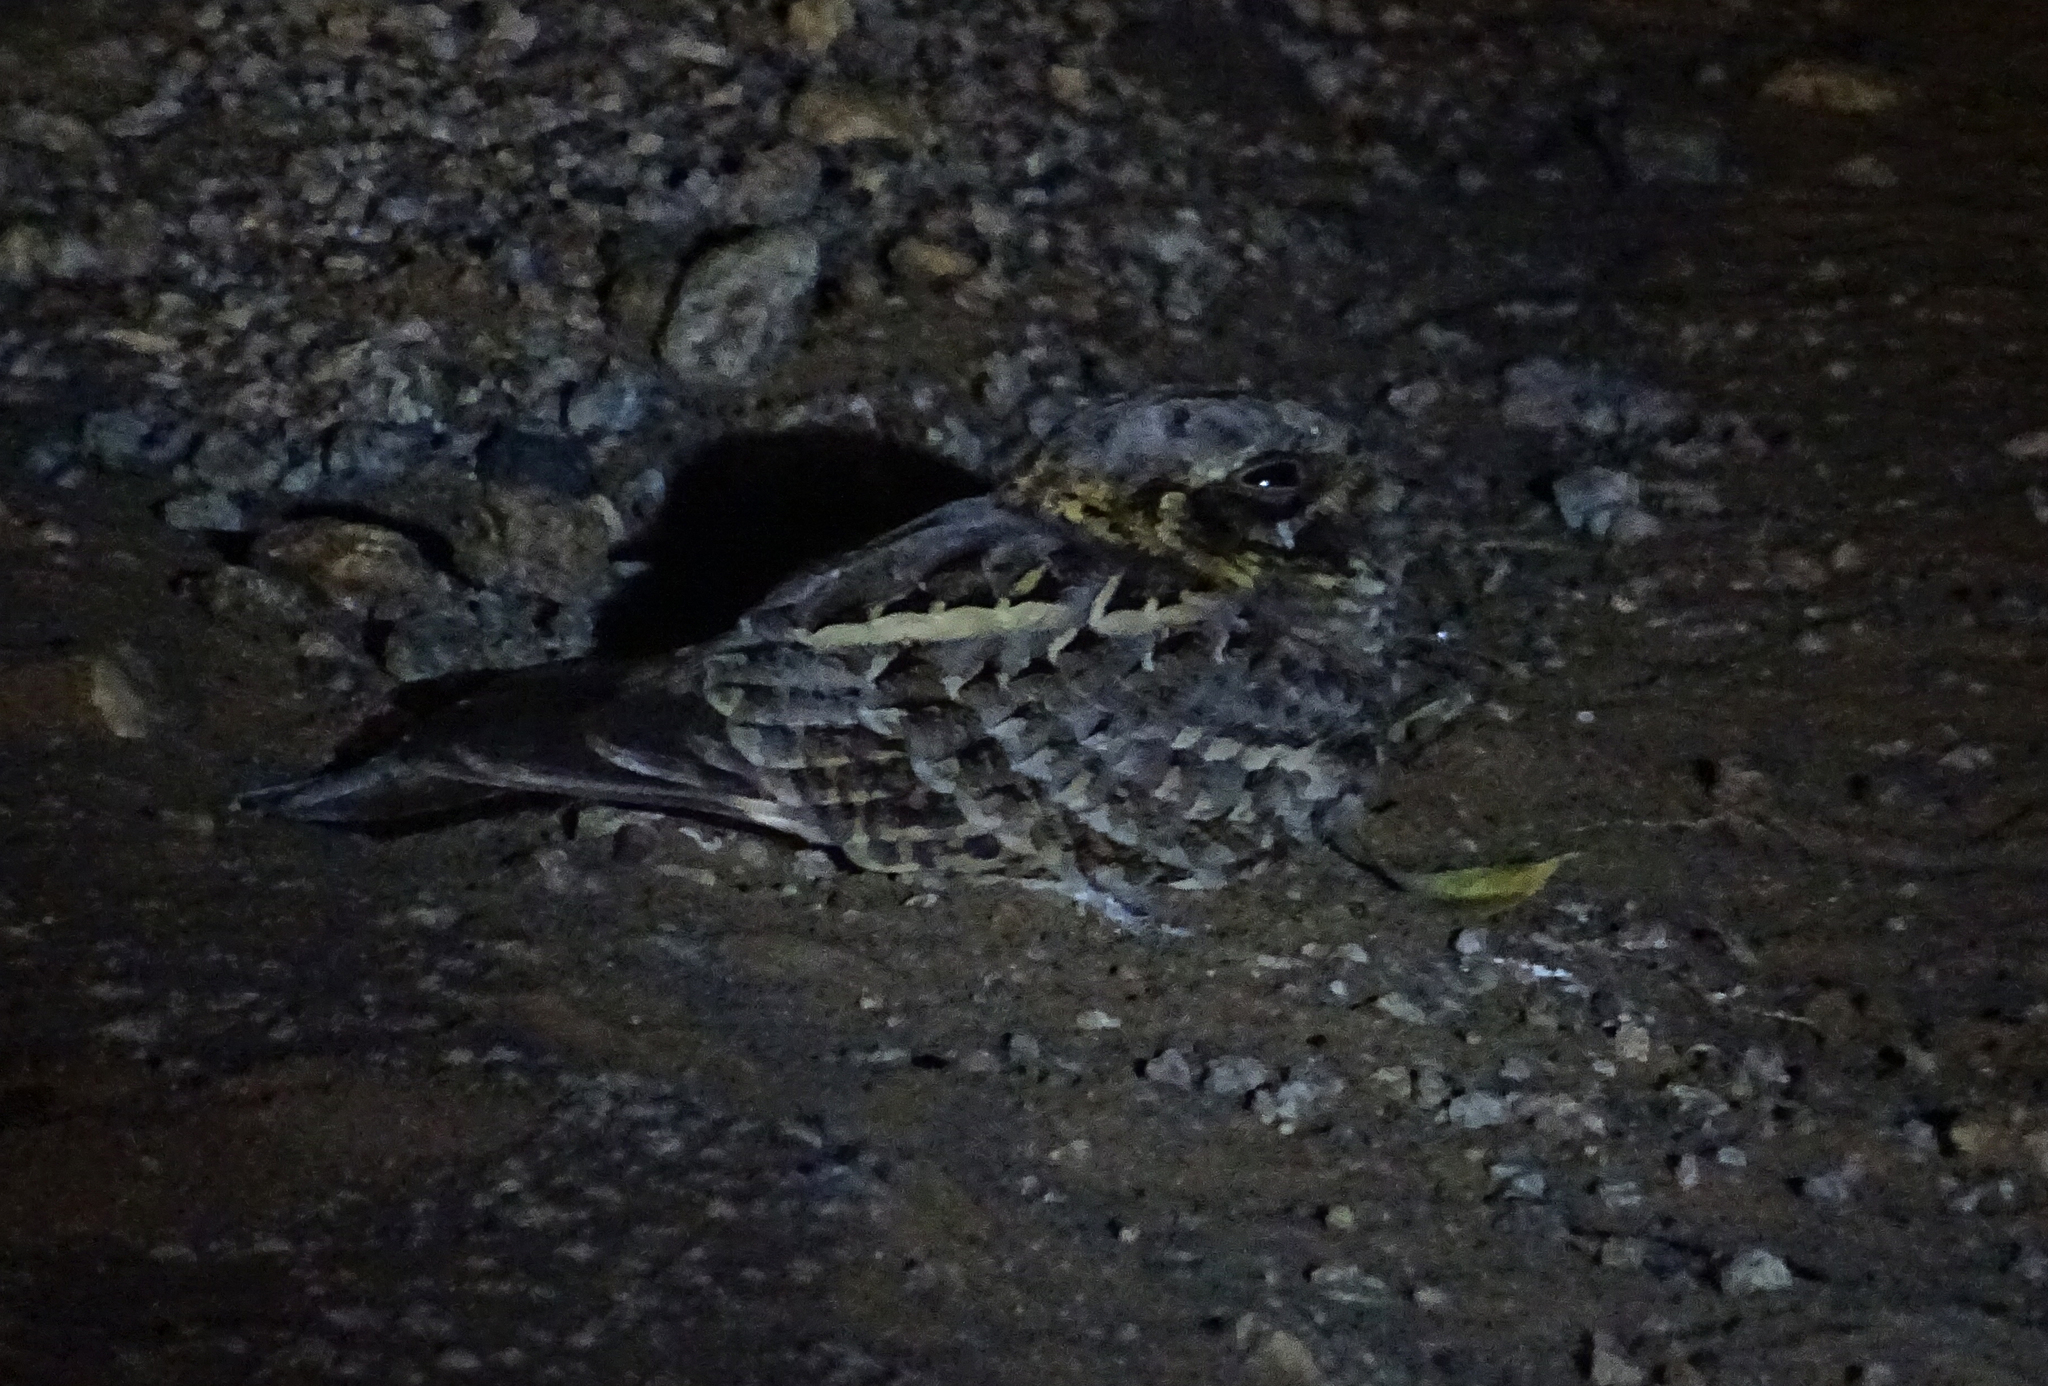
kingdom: Animalia
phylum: Chordata
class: Aves
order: Caprimulgiformes
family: Caprimulgidae
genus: Caprimulgus
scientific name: Caprimulgus asiaticus
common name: Indian nightjar
